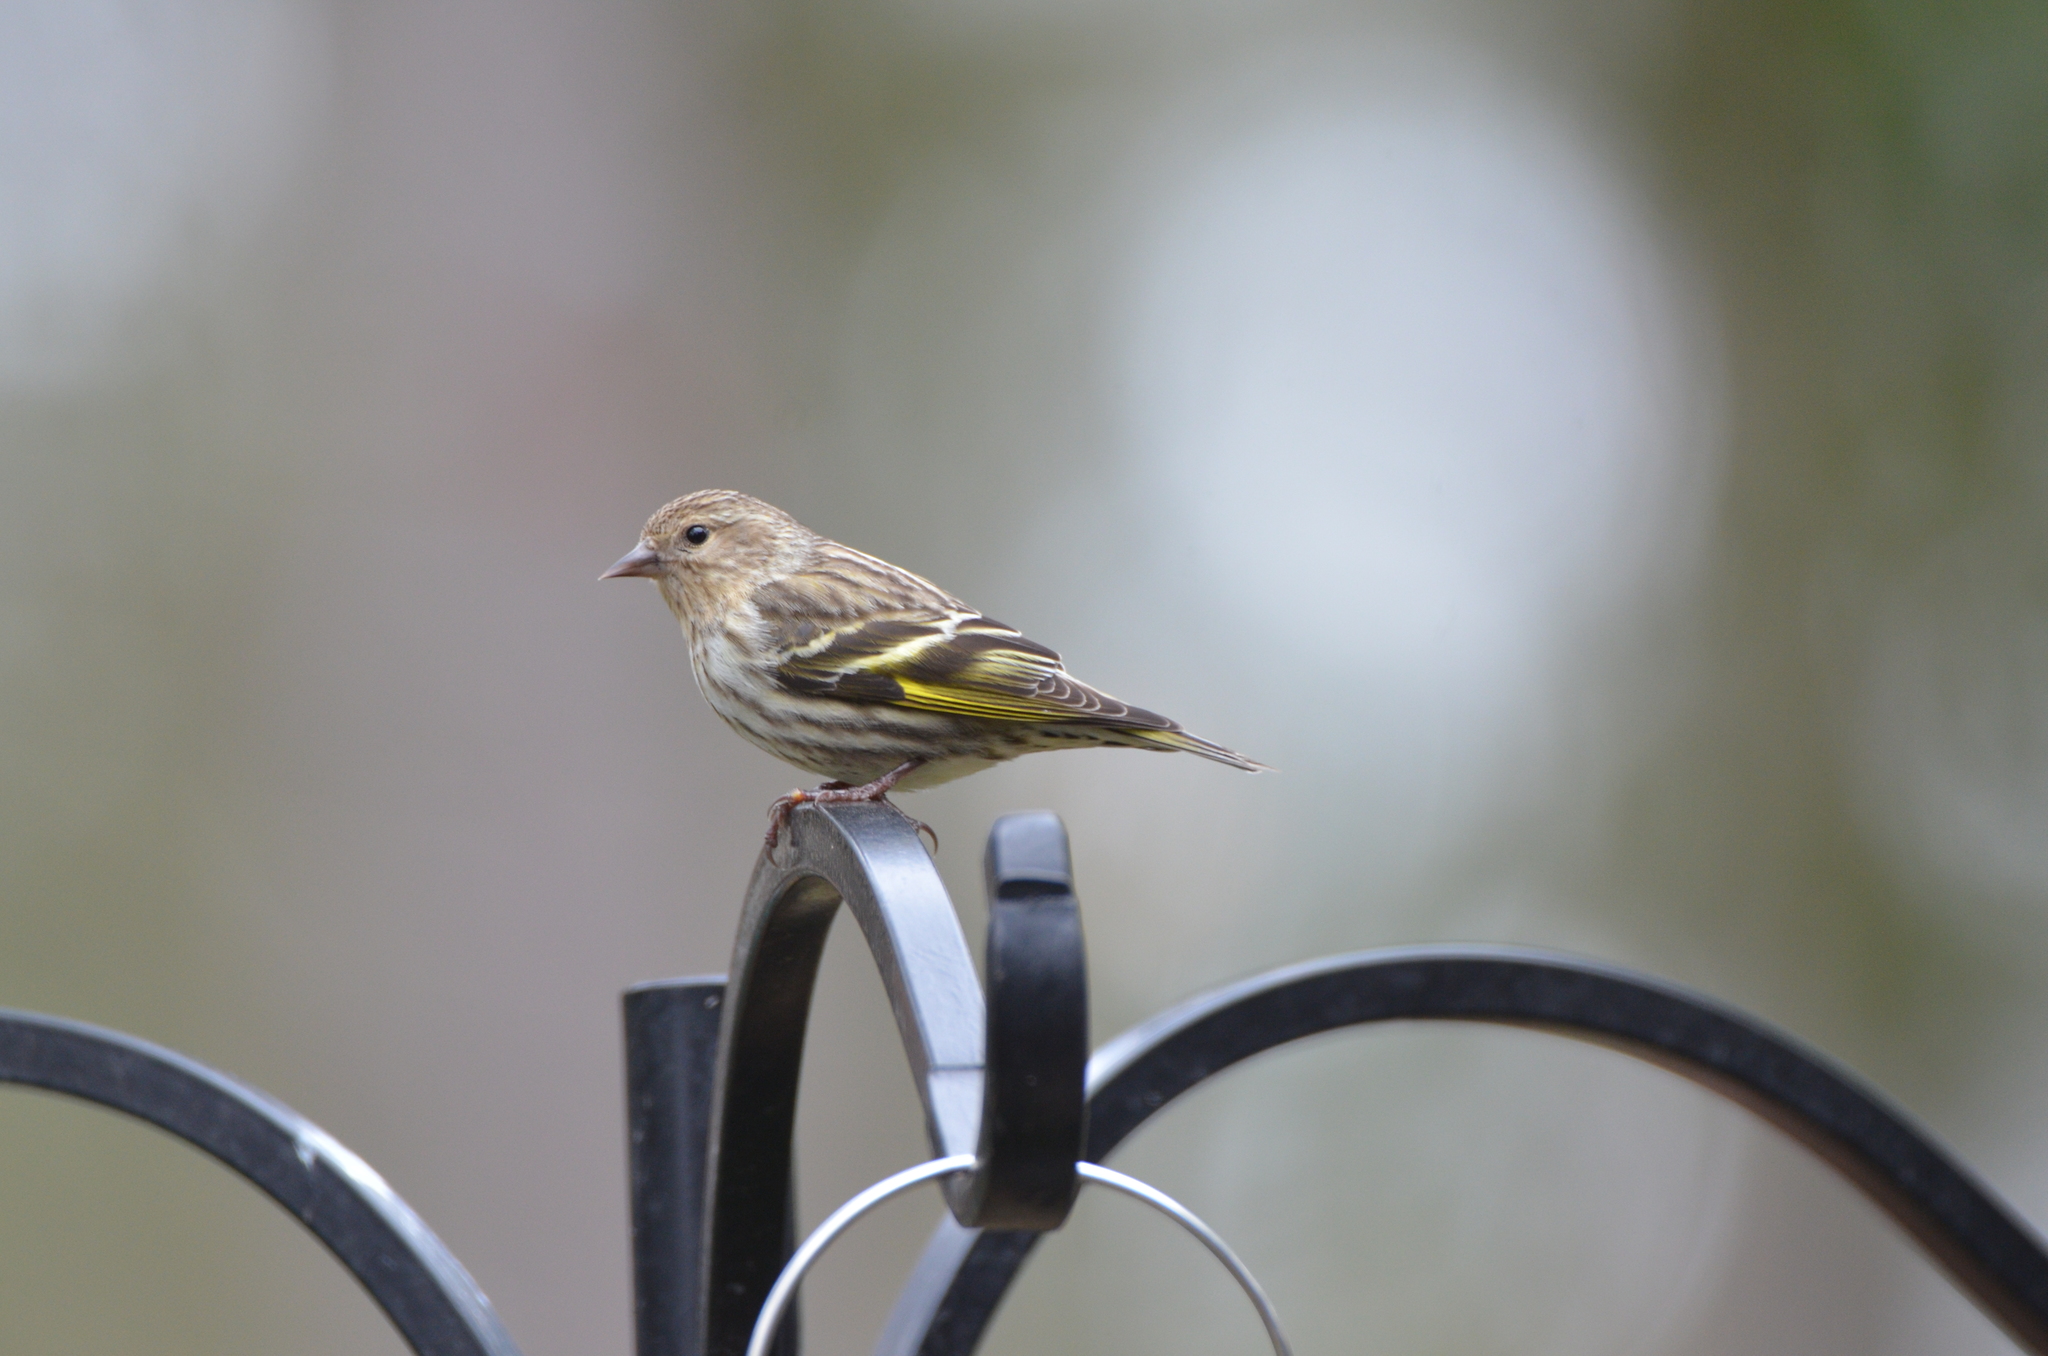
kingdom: Animalia
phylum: Chordata
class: Aves
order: Passeriformes
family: Fringillidae
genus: Spinus
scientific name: Spinus pinus
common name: Pine siskin
